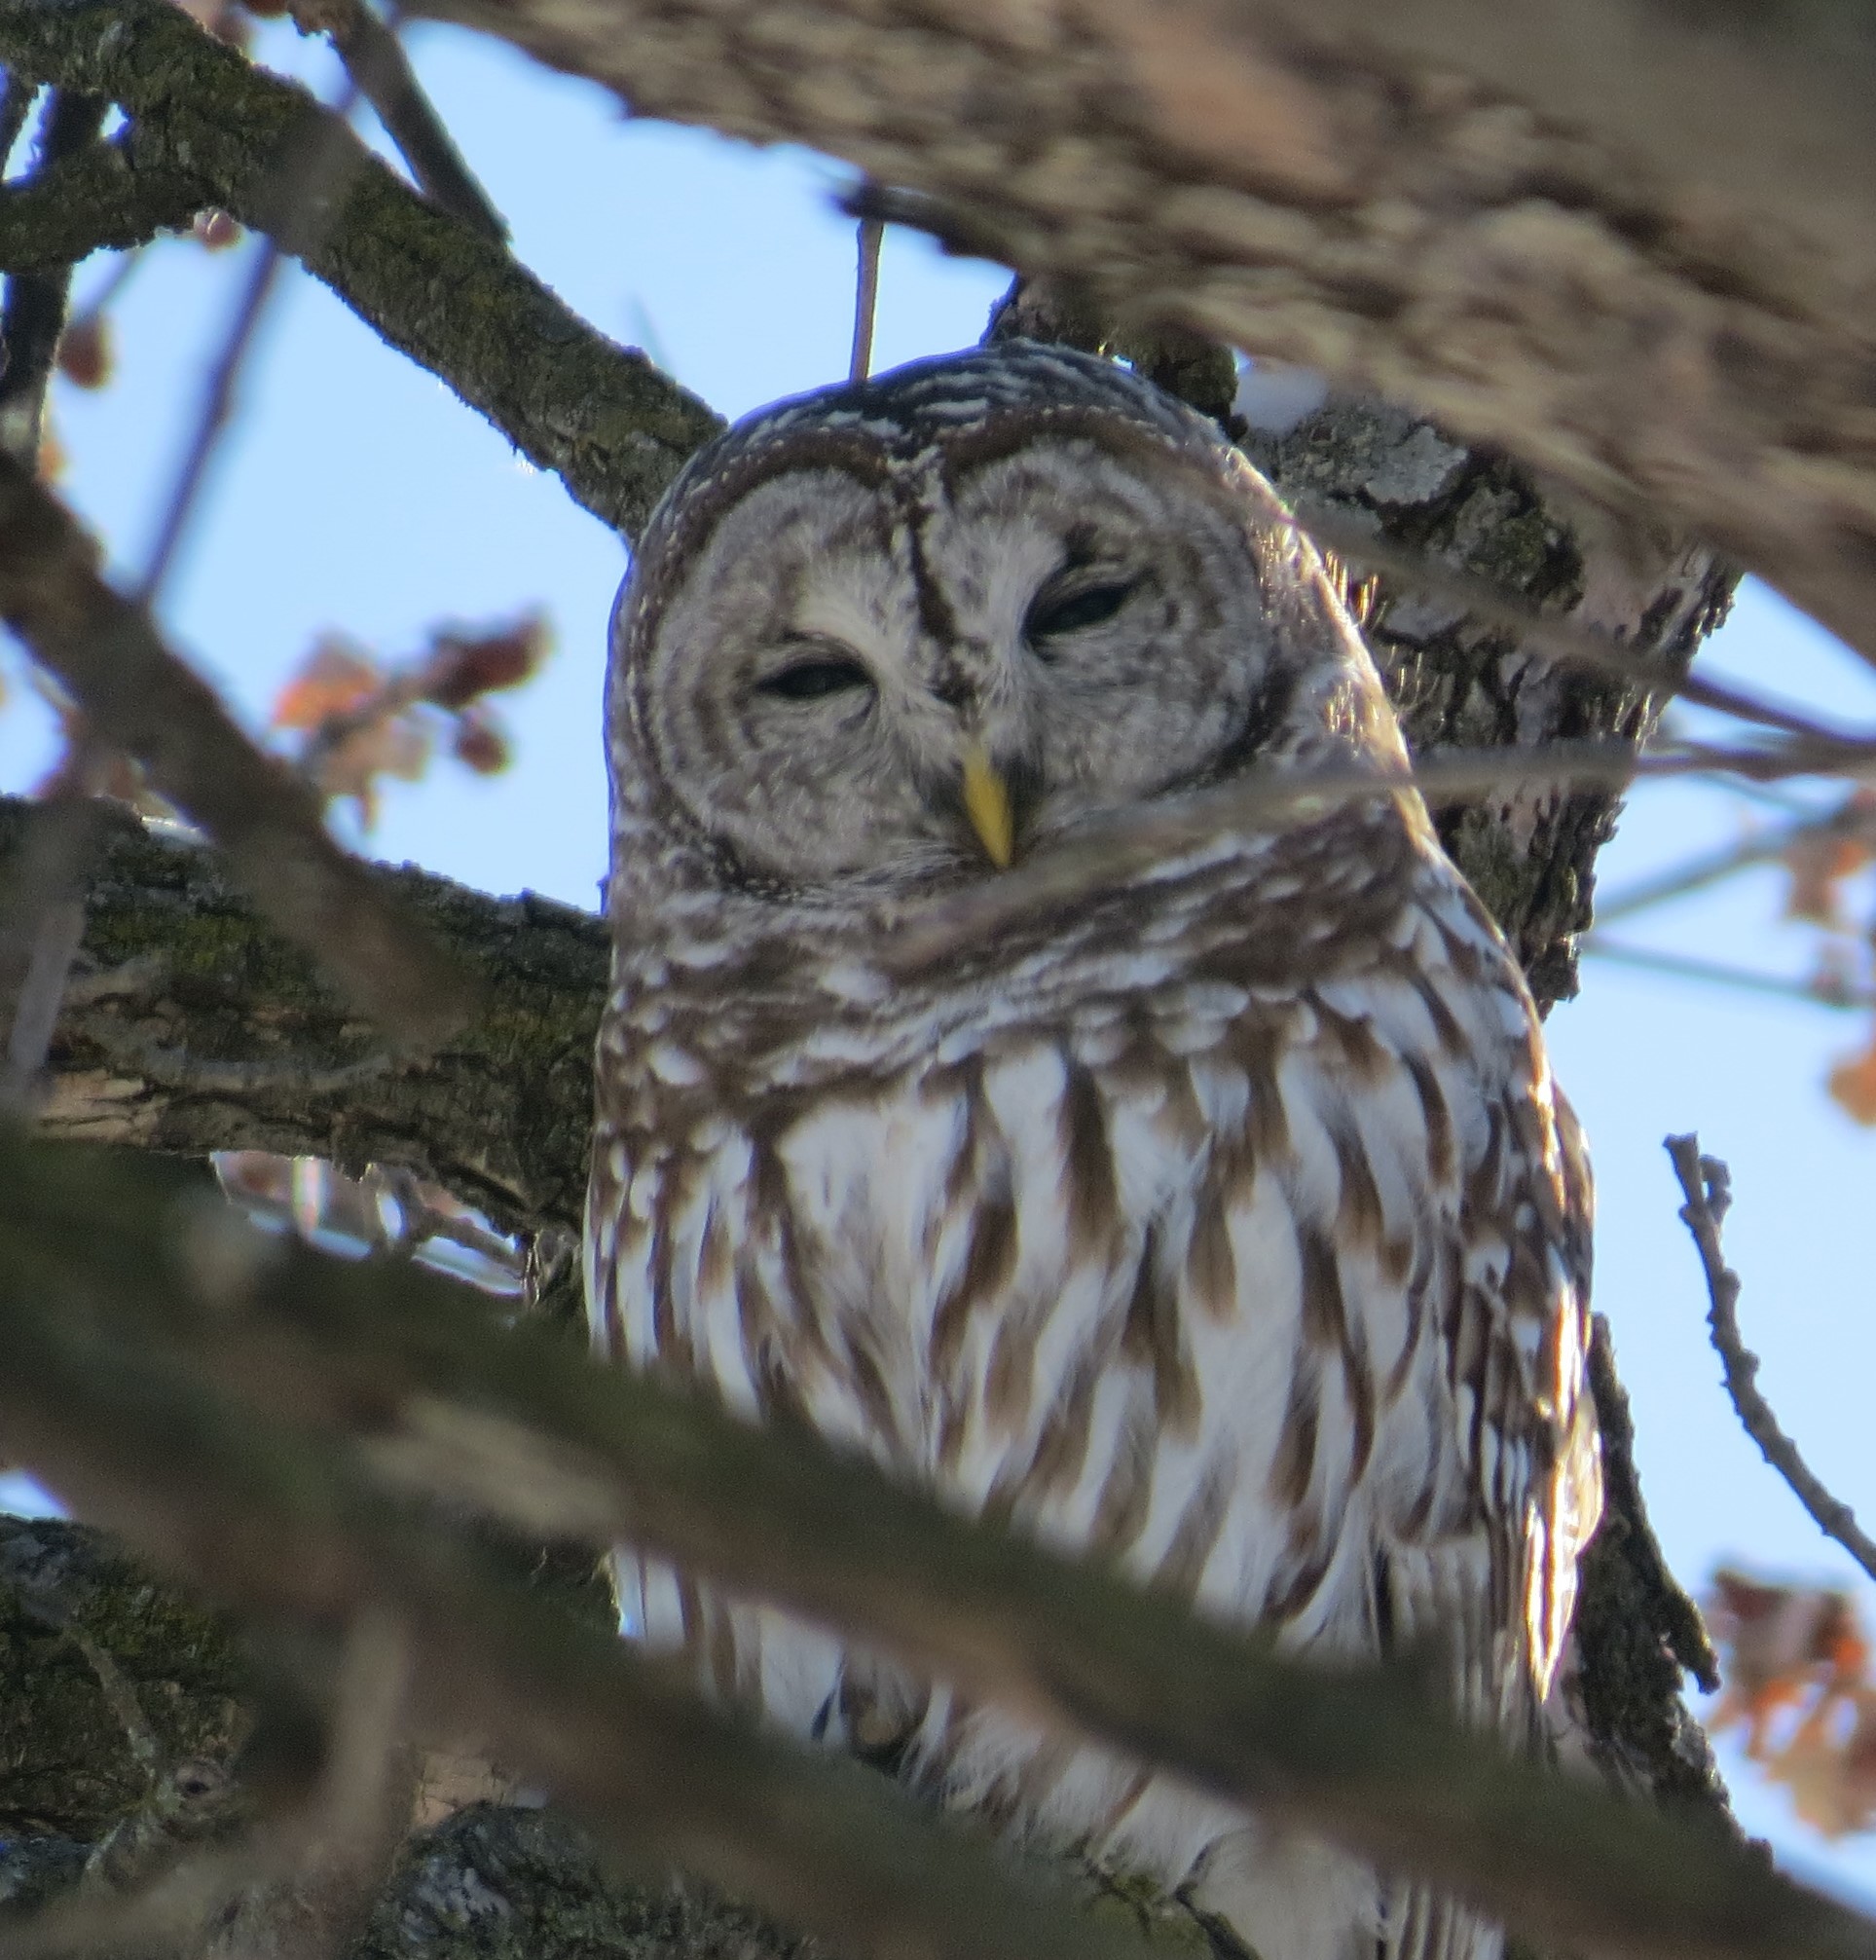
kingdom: Animalia
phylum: Chordata
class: Aves
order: Strigiformes
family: Strigidae
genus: Strix
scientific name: Strix varia
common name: Barred owl
